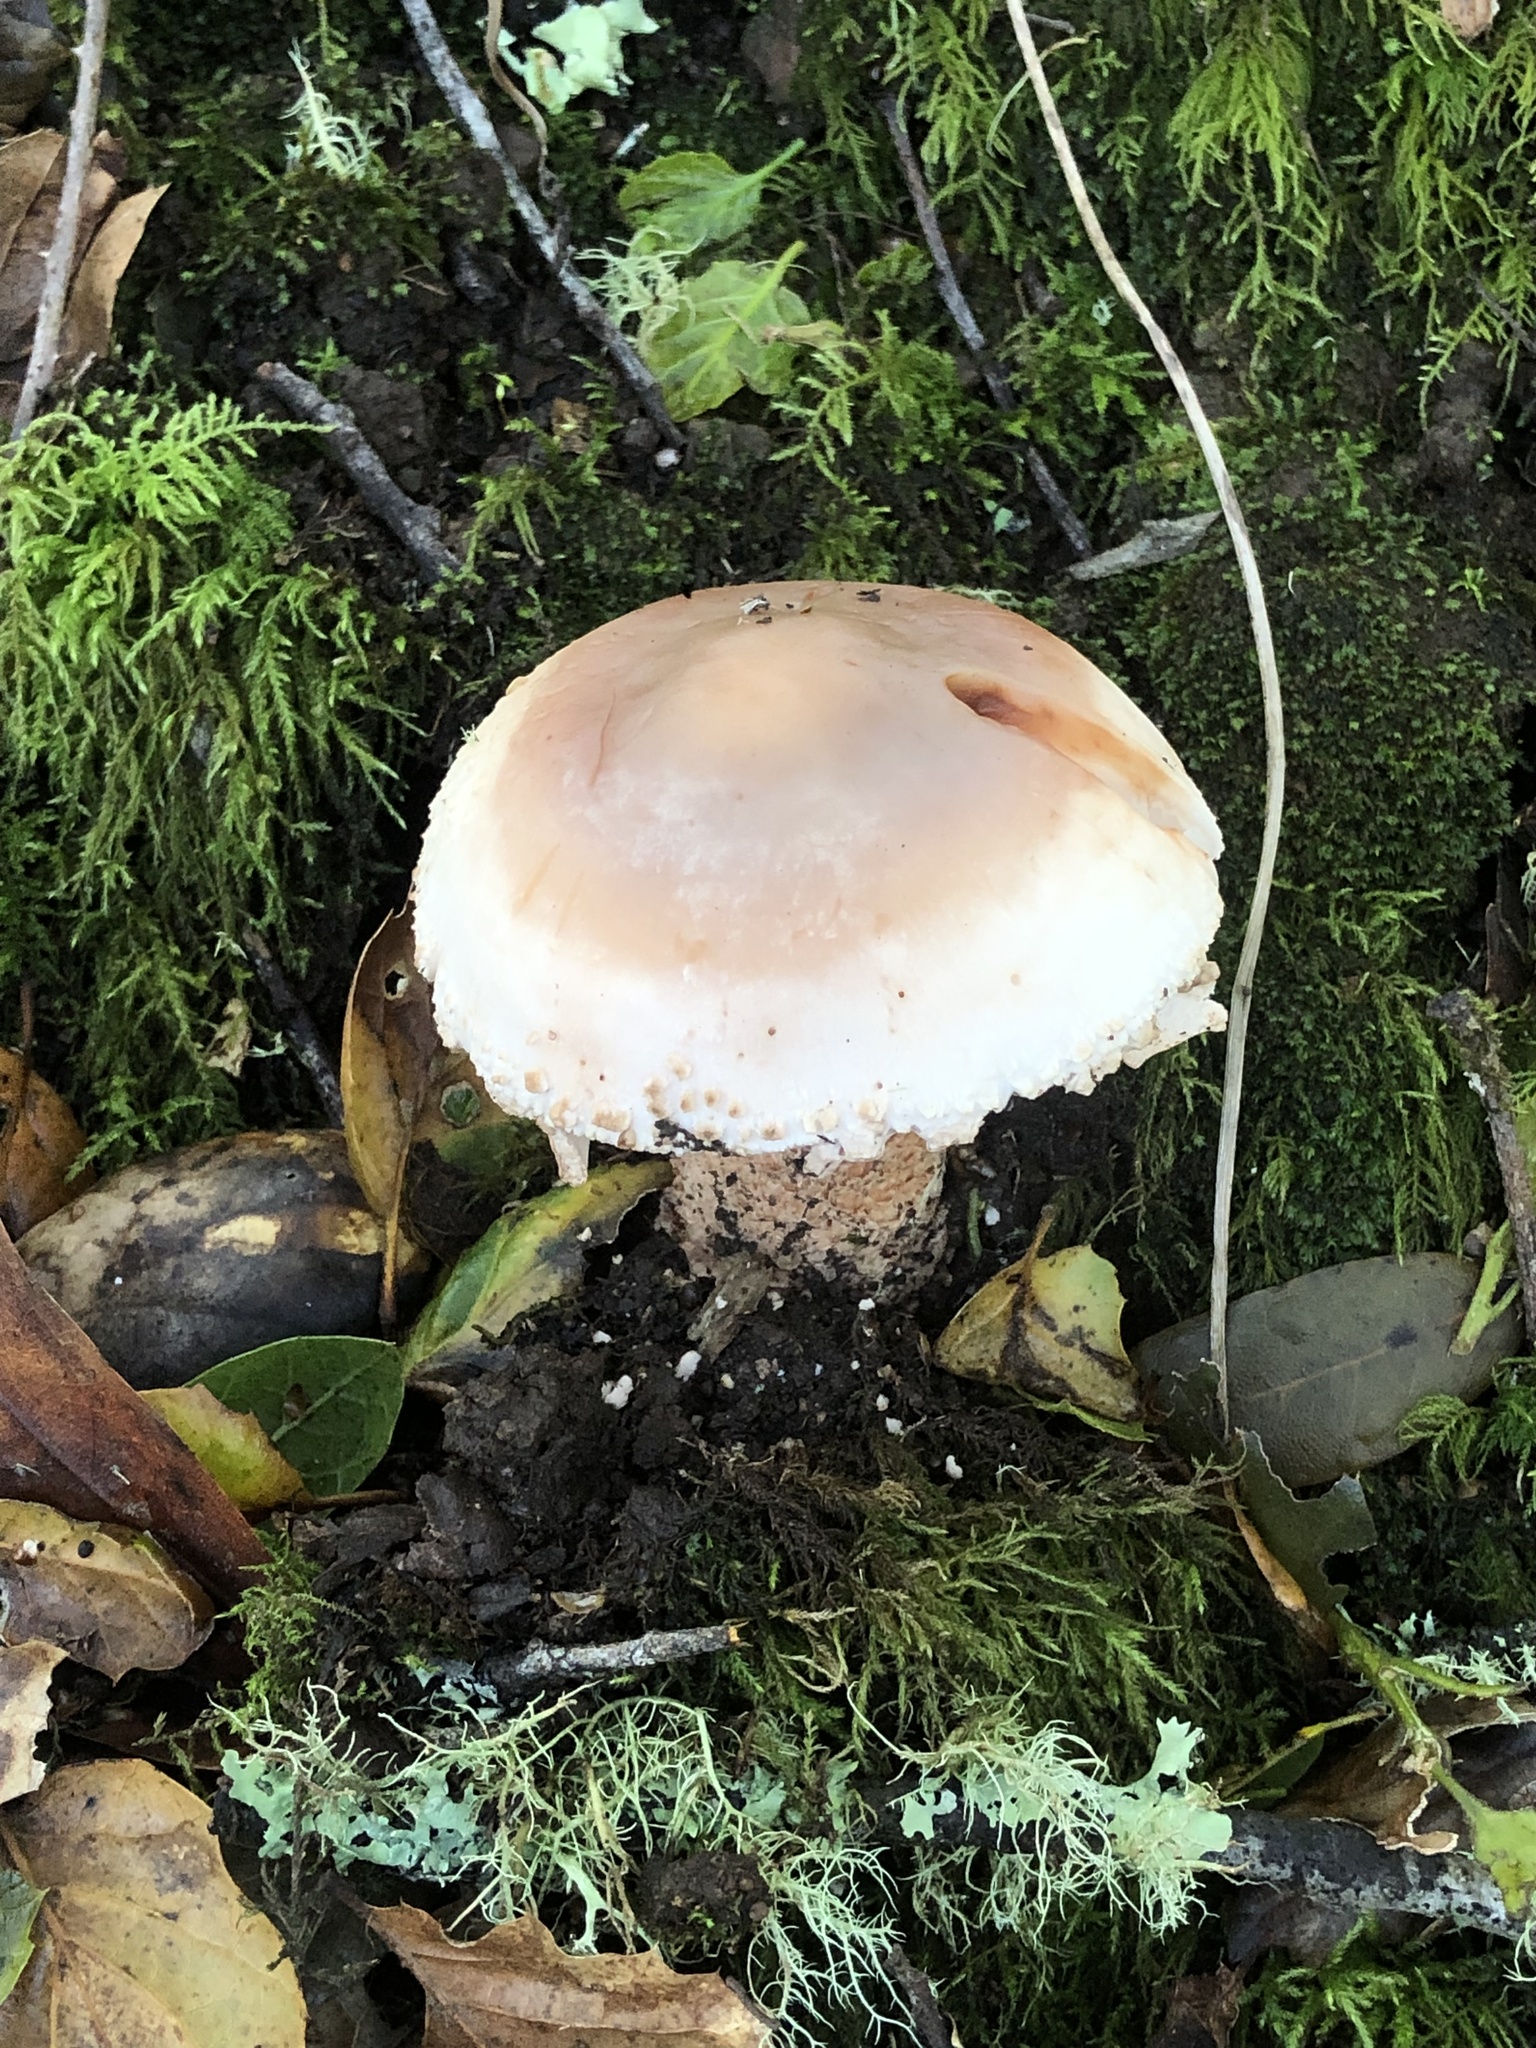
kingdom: Fungi
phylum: Basidiomycota
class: Agaricomycetes
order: Agaricales
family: Amanitaceae
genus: Amanita
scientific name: Amanita novinupta
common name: Blushing bride
